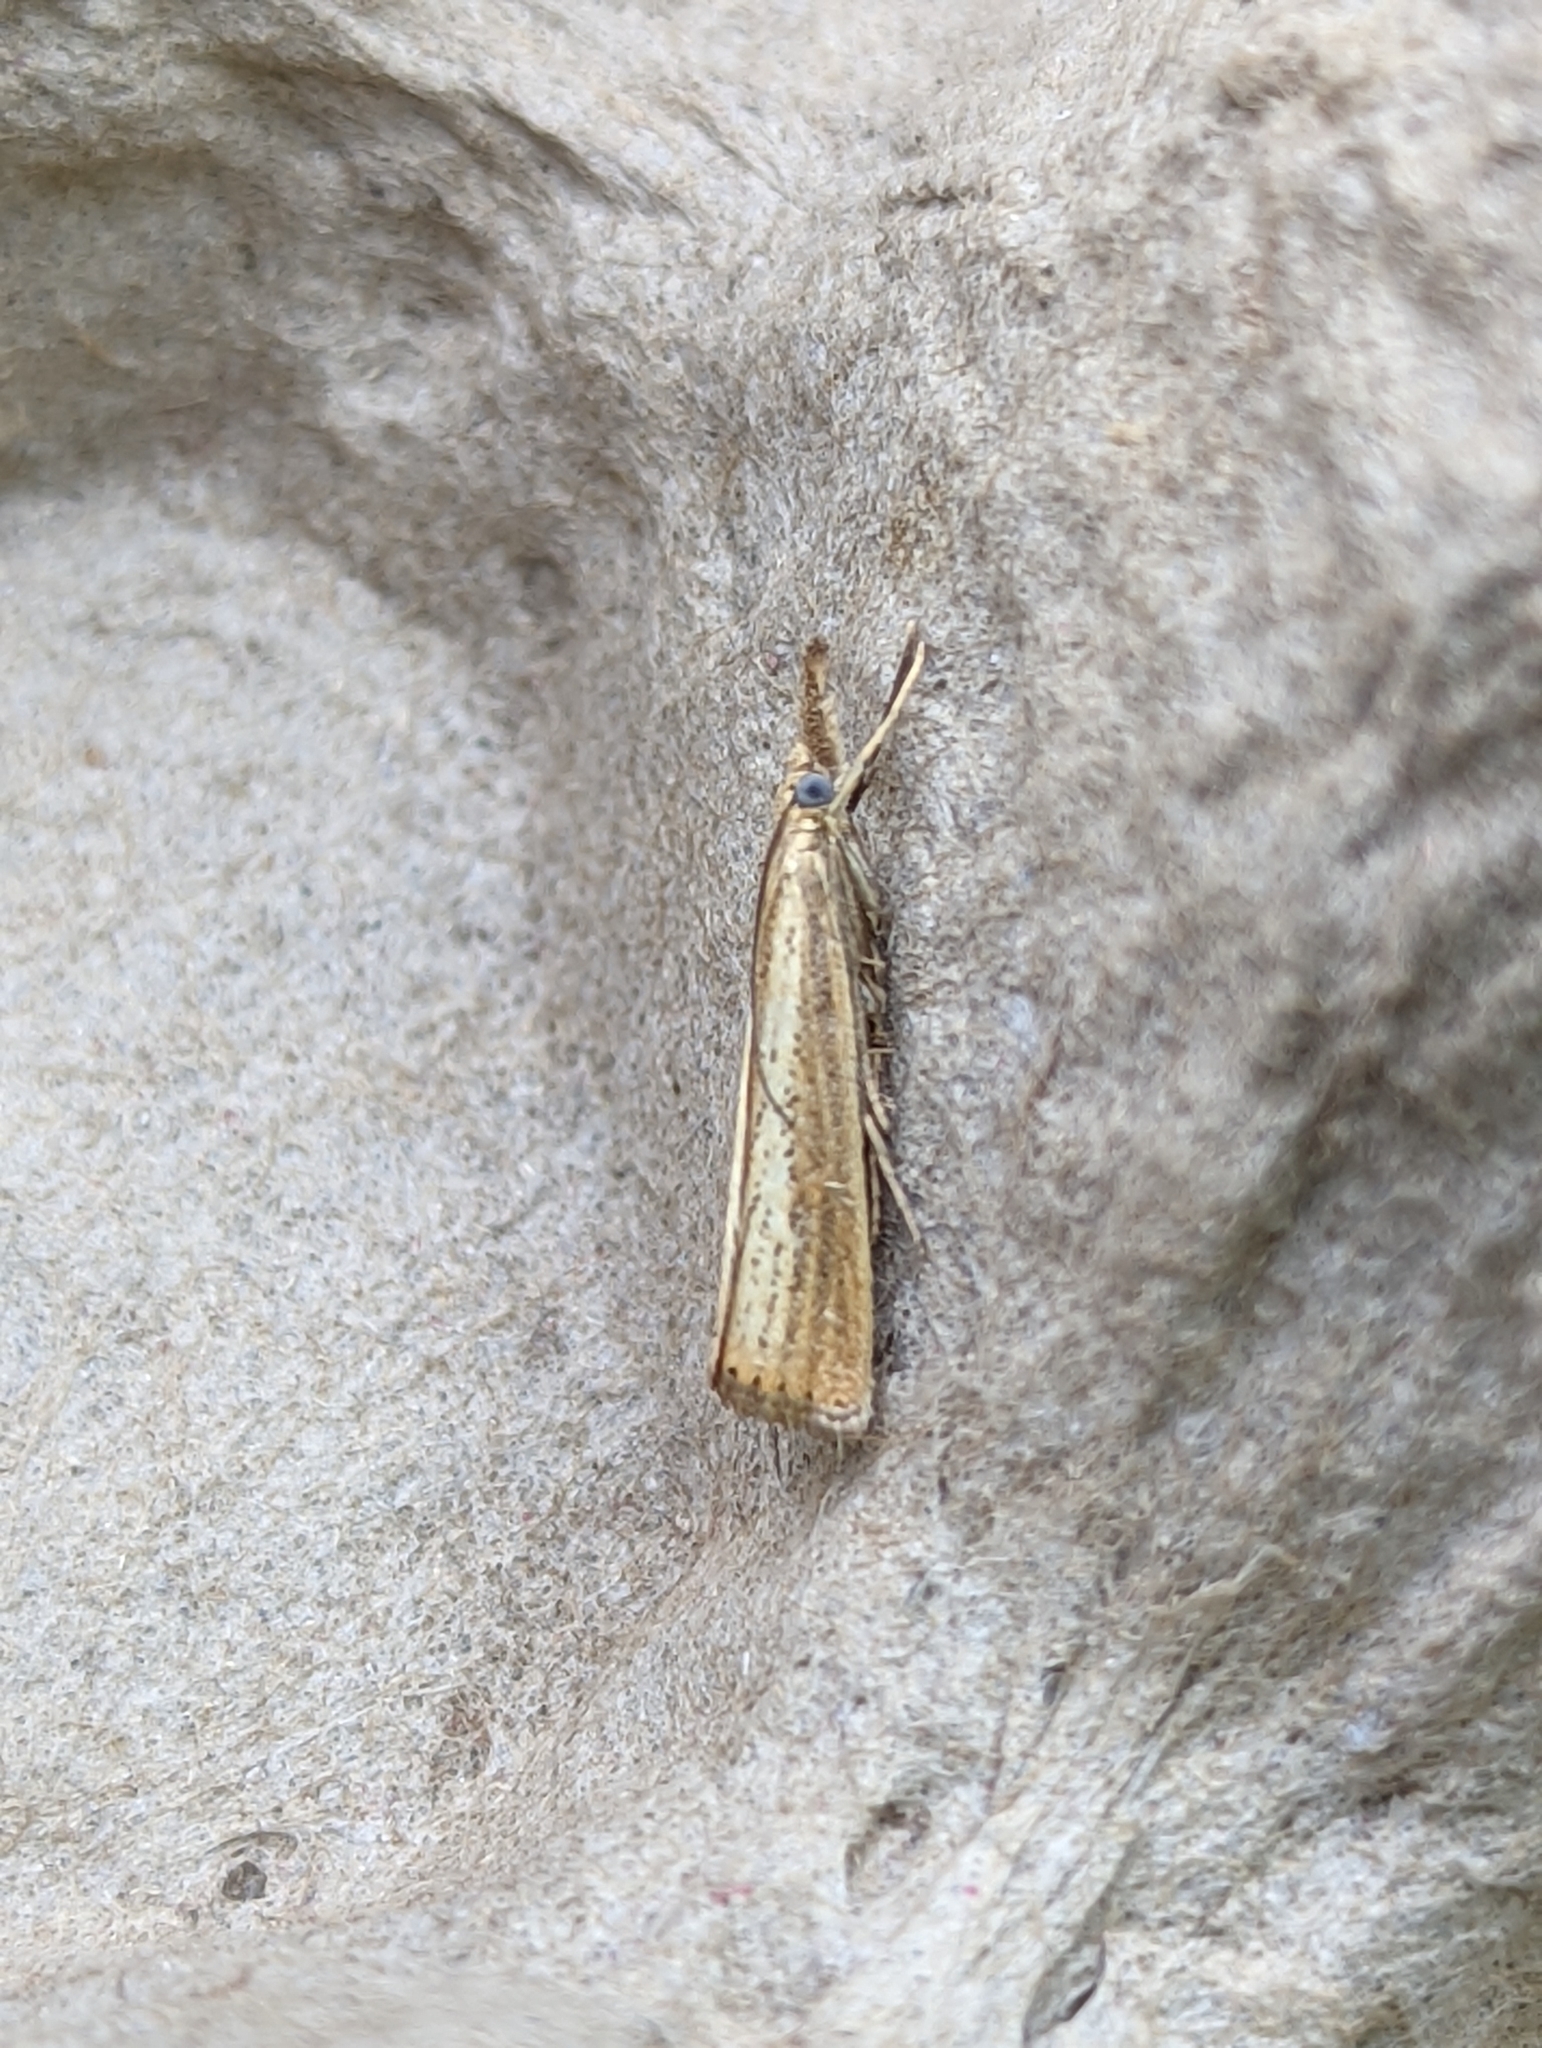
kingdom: Animalia
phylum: Arthropoda
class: Insecta
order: Lepidoptera
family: Crambidae
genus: Agriphila
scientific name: Agriphila straminella
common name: Straw grass-veneer
